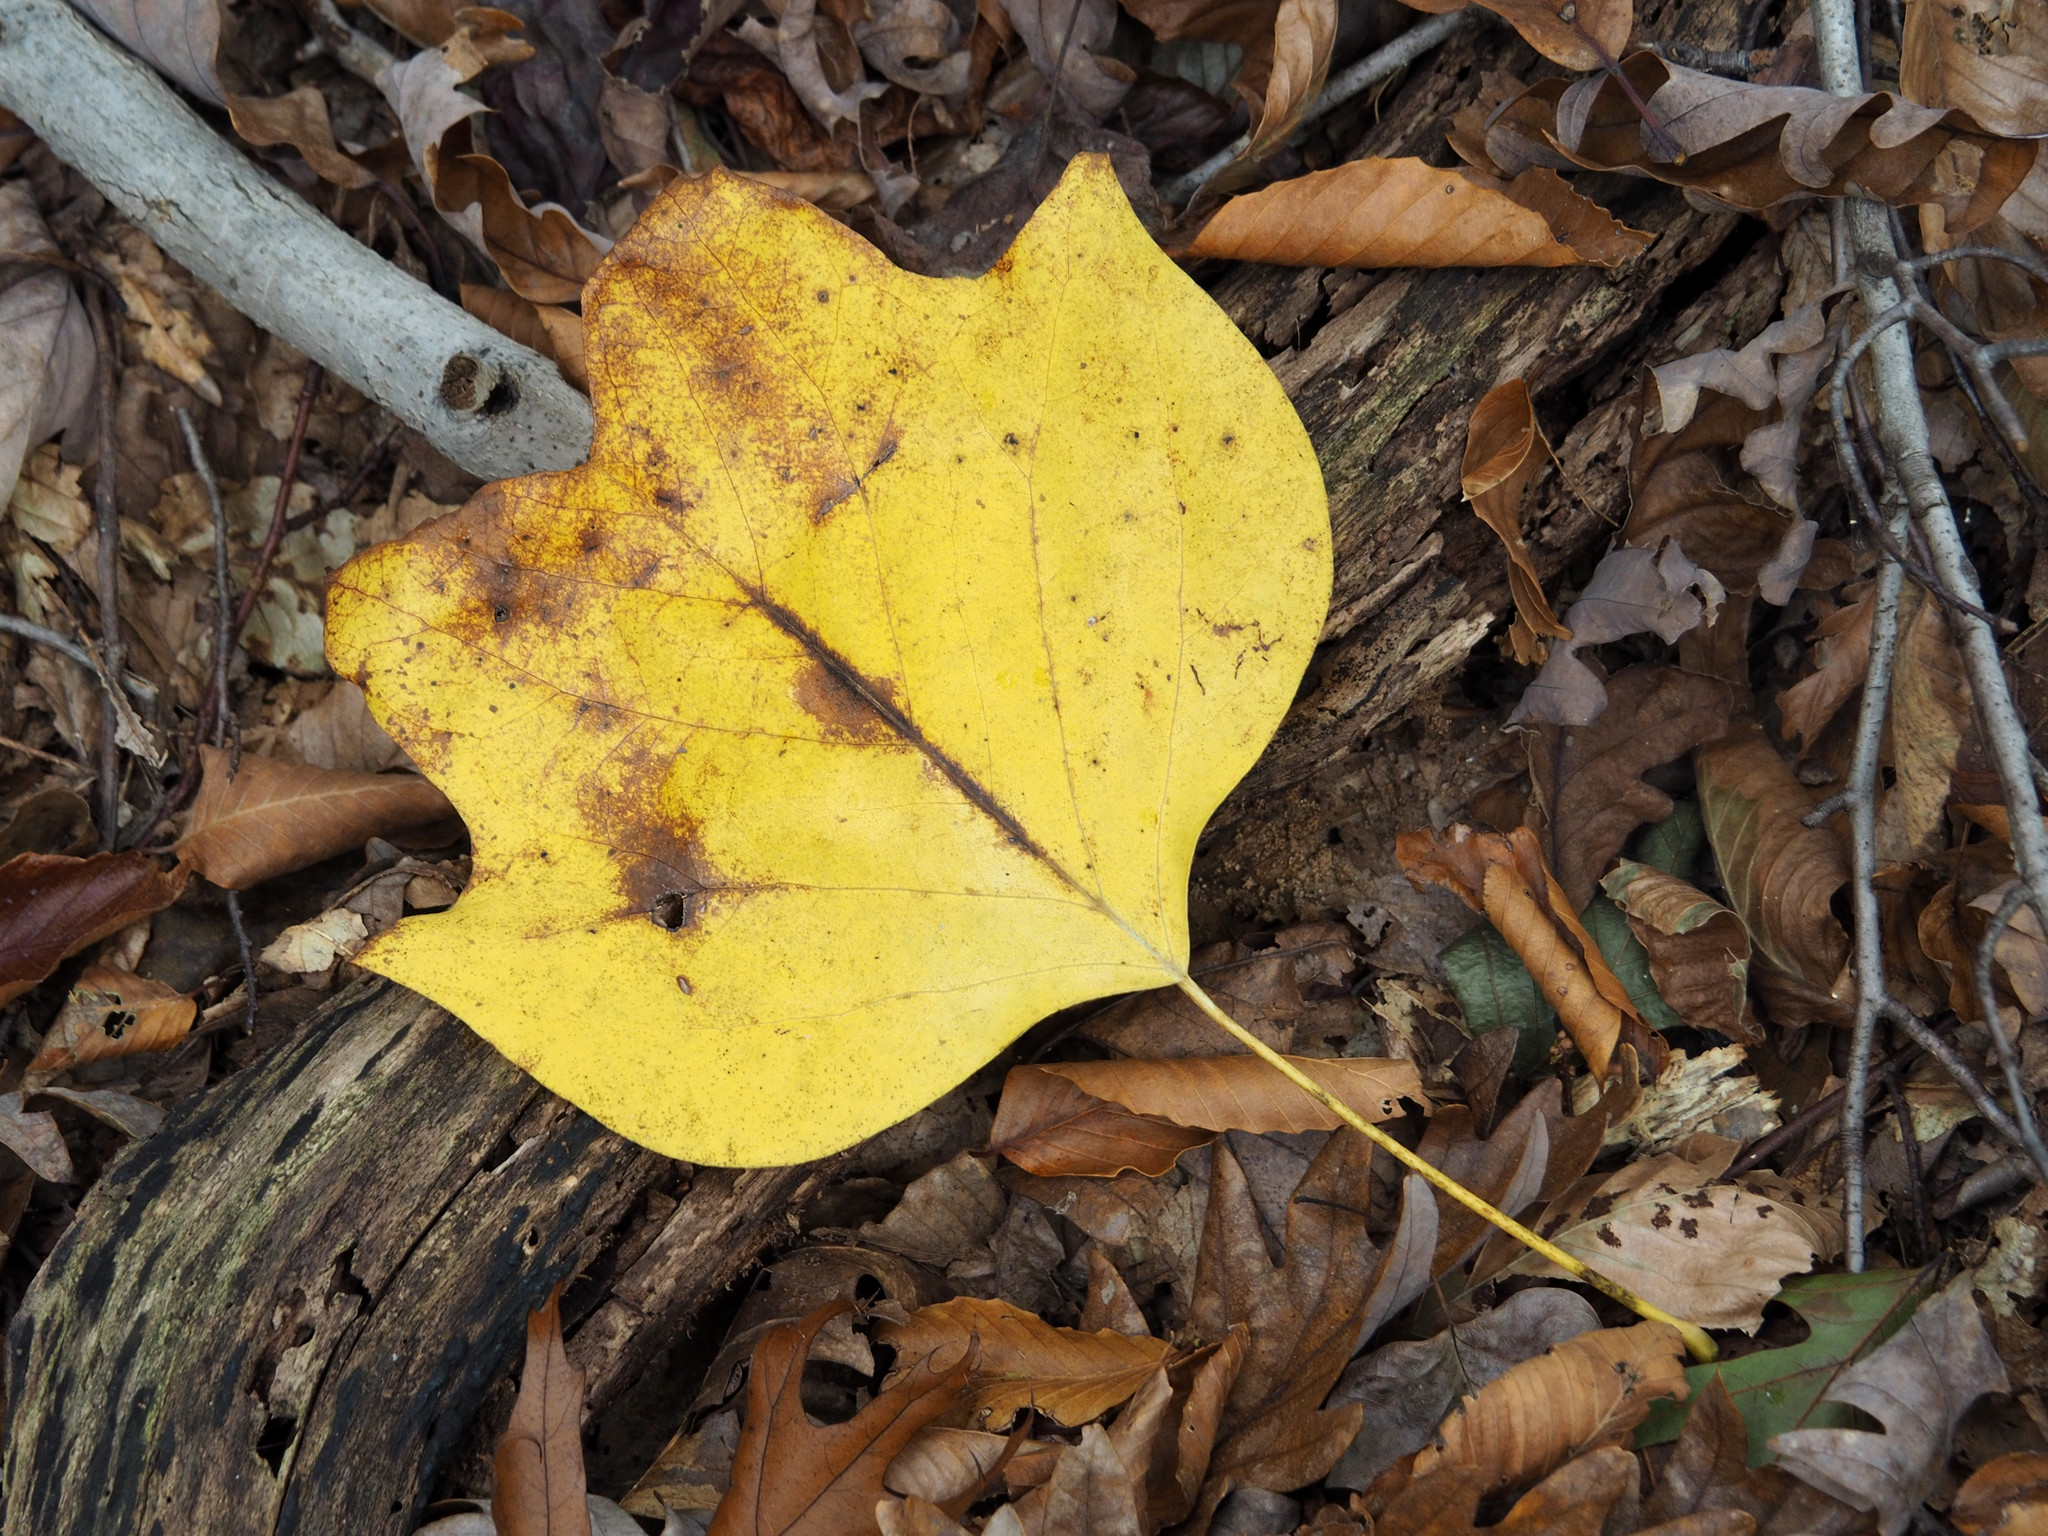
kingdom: Plantae
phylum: Tracheophyta
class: Magnoliopsida
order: Magnoliales
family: Magnoliaceae
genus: Liriodendron
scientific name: Liriodendron tulipifera
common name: Tulip tree
